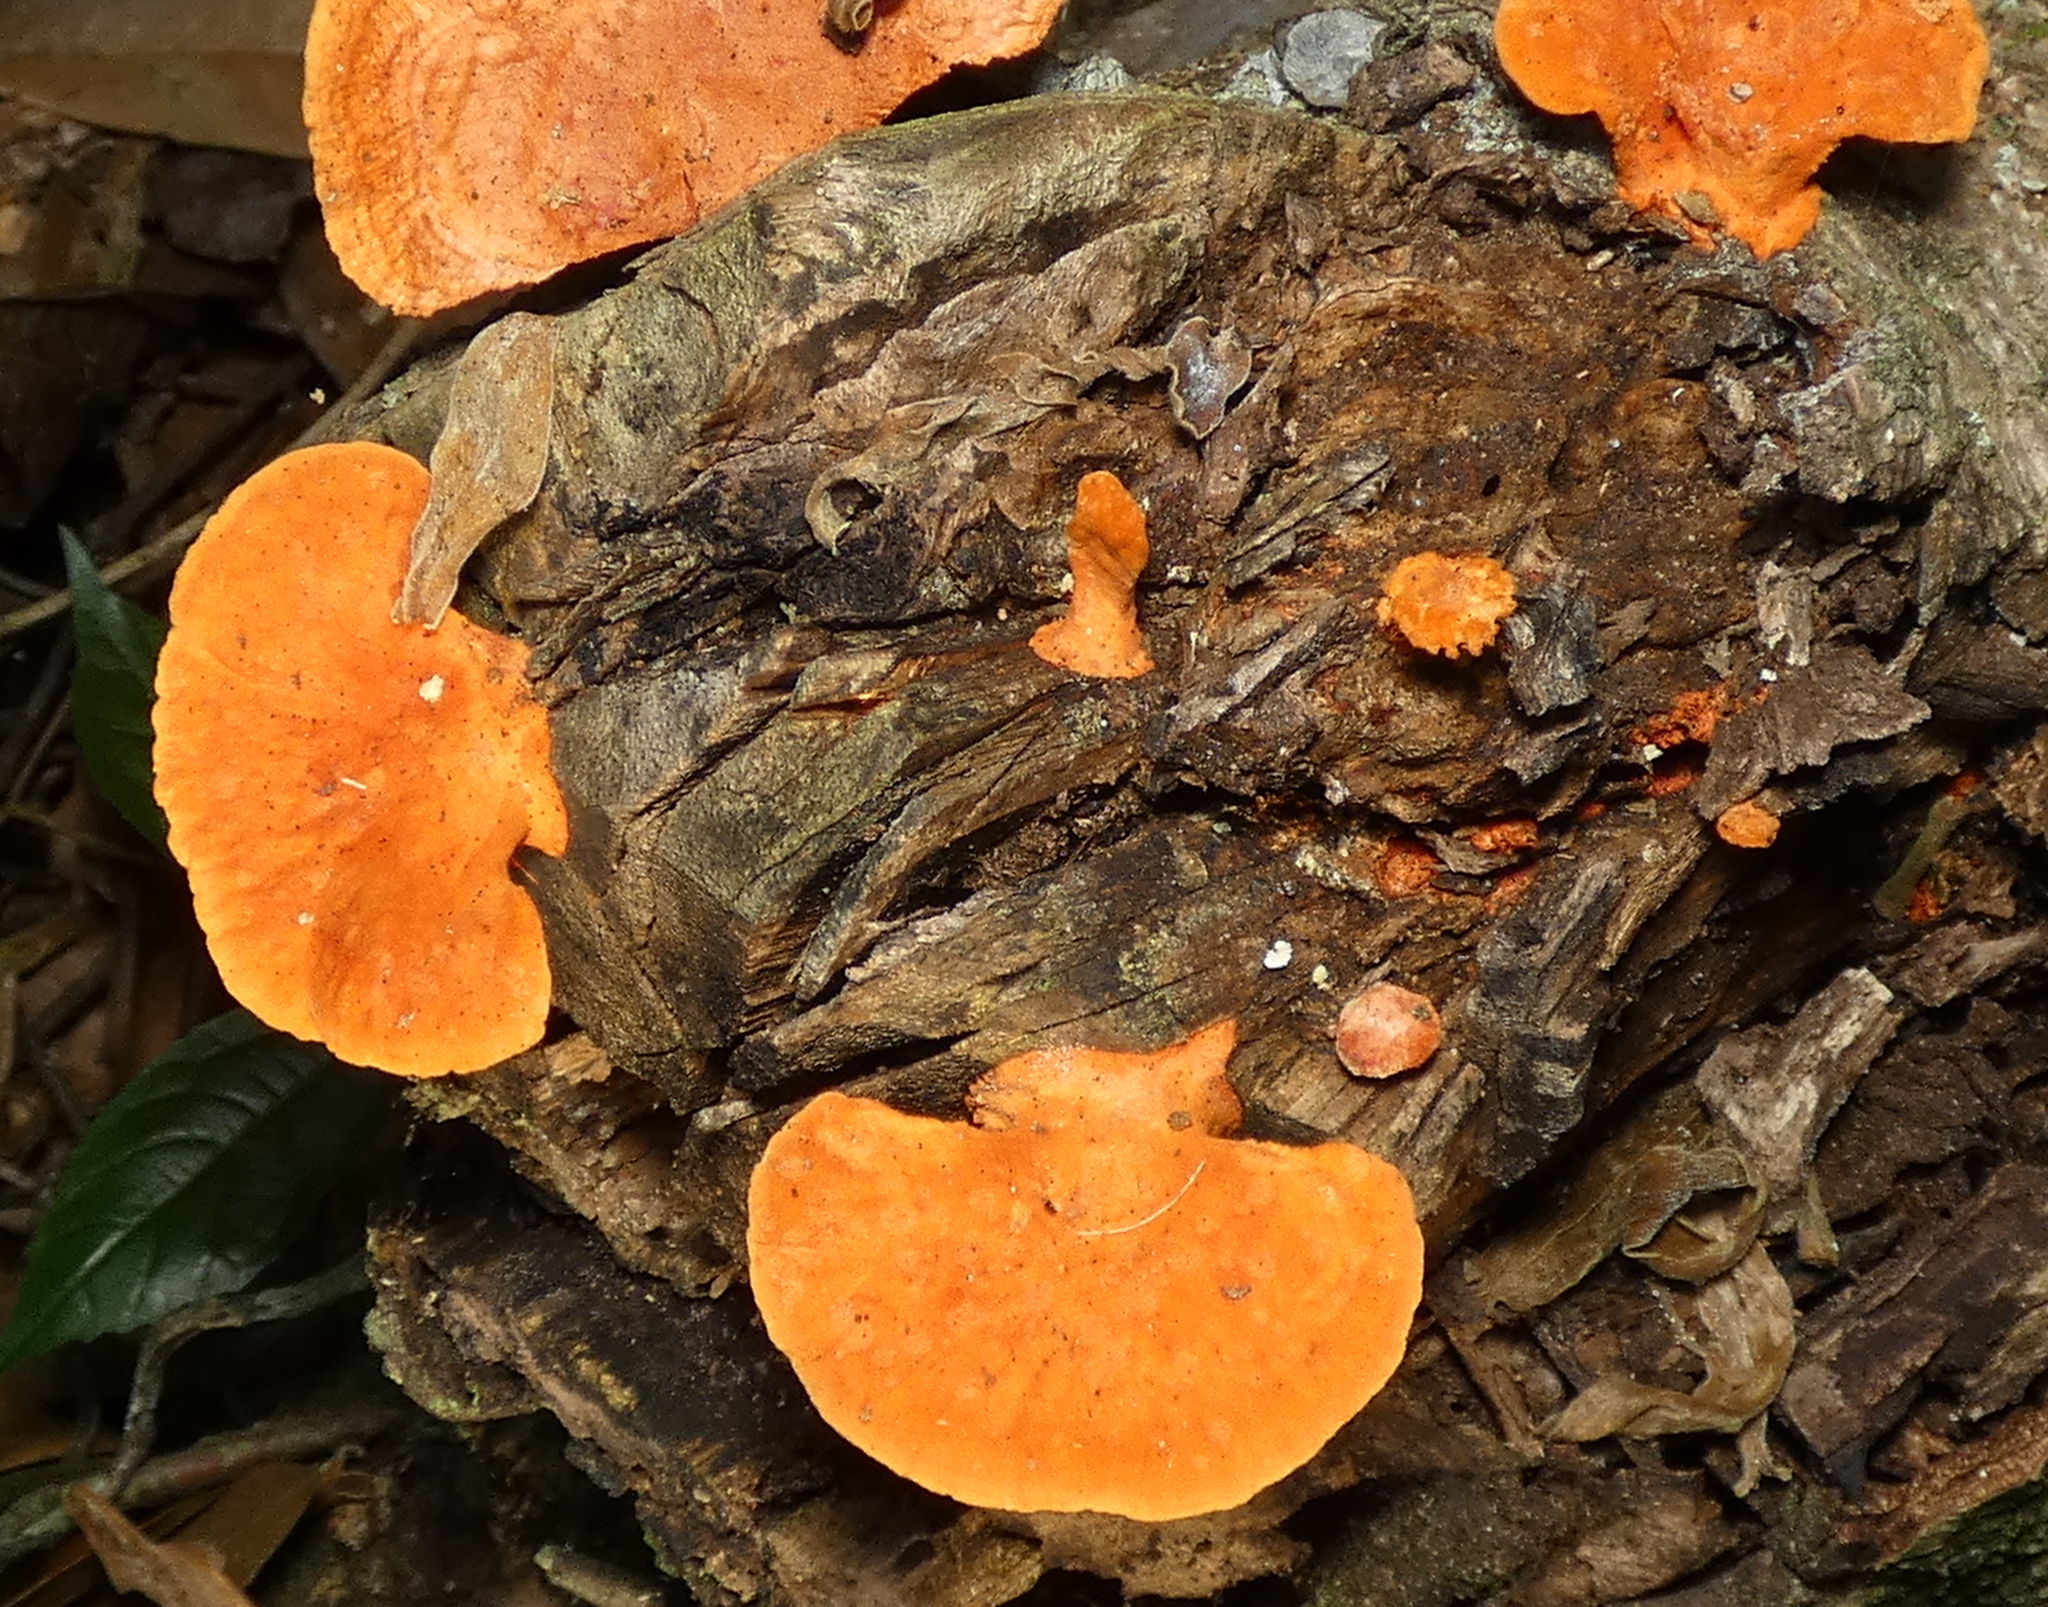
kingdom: Fungi
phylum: Basidiomycota
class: Agaricomycetes
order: Polyporales
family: Polyporaceae
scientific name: Polyporaceae
